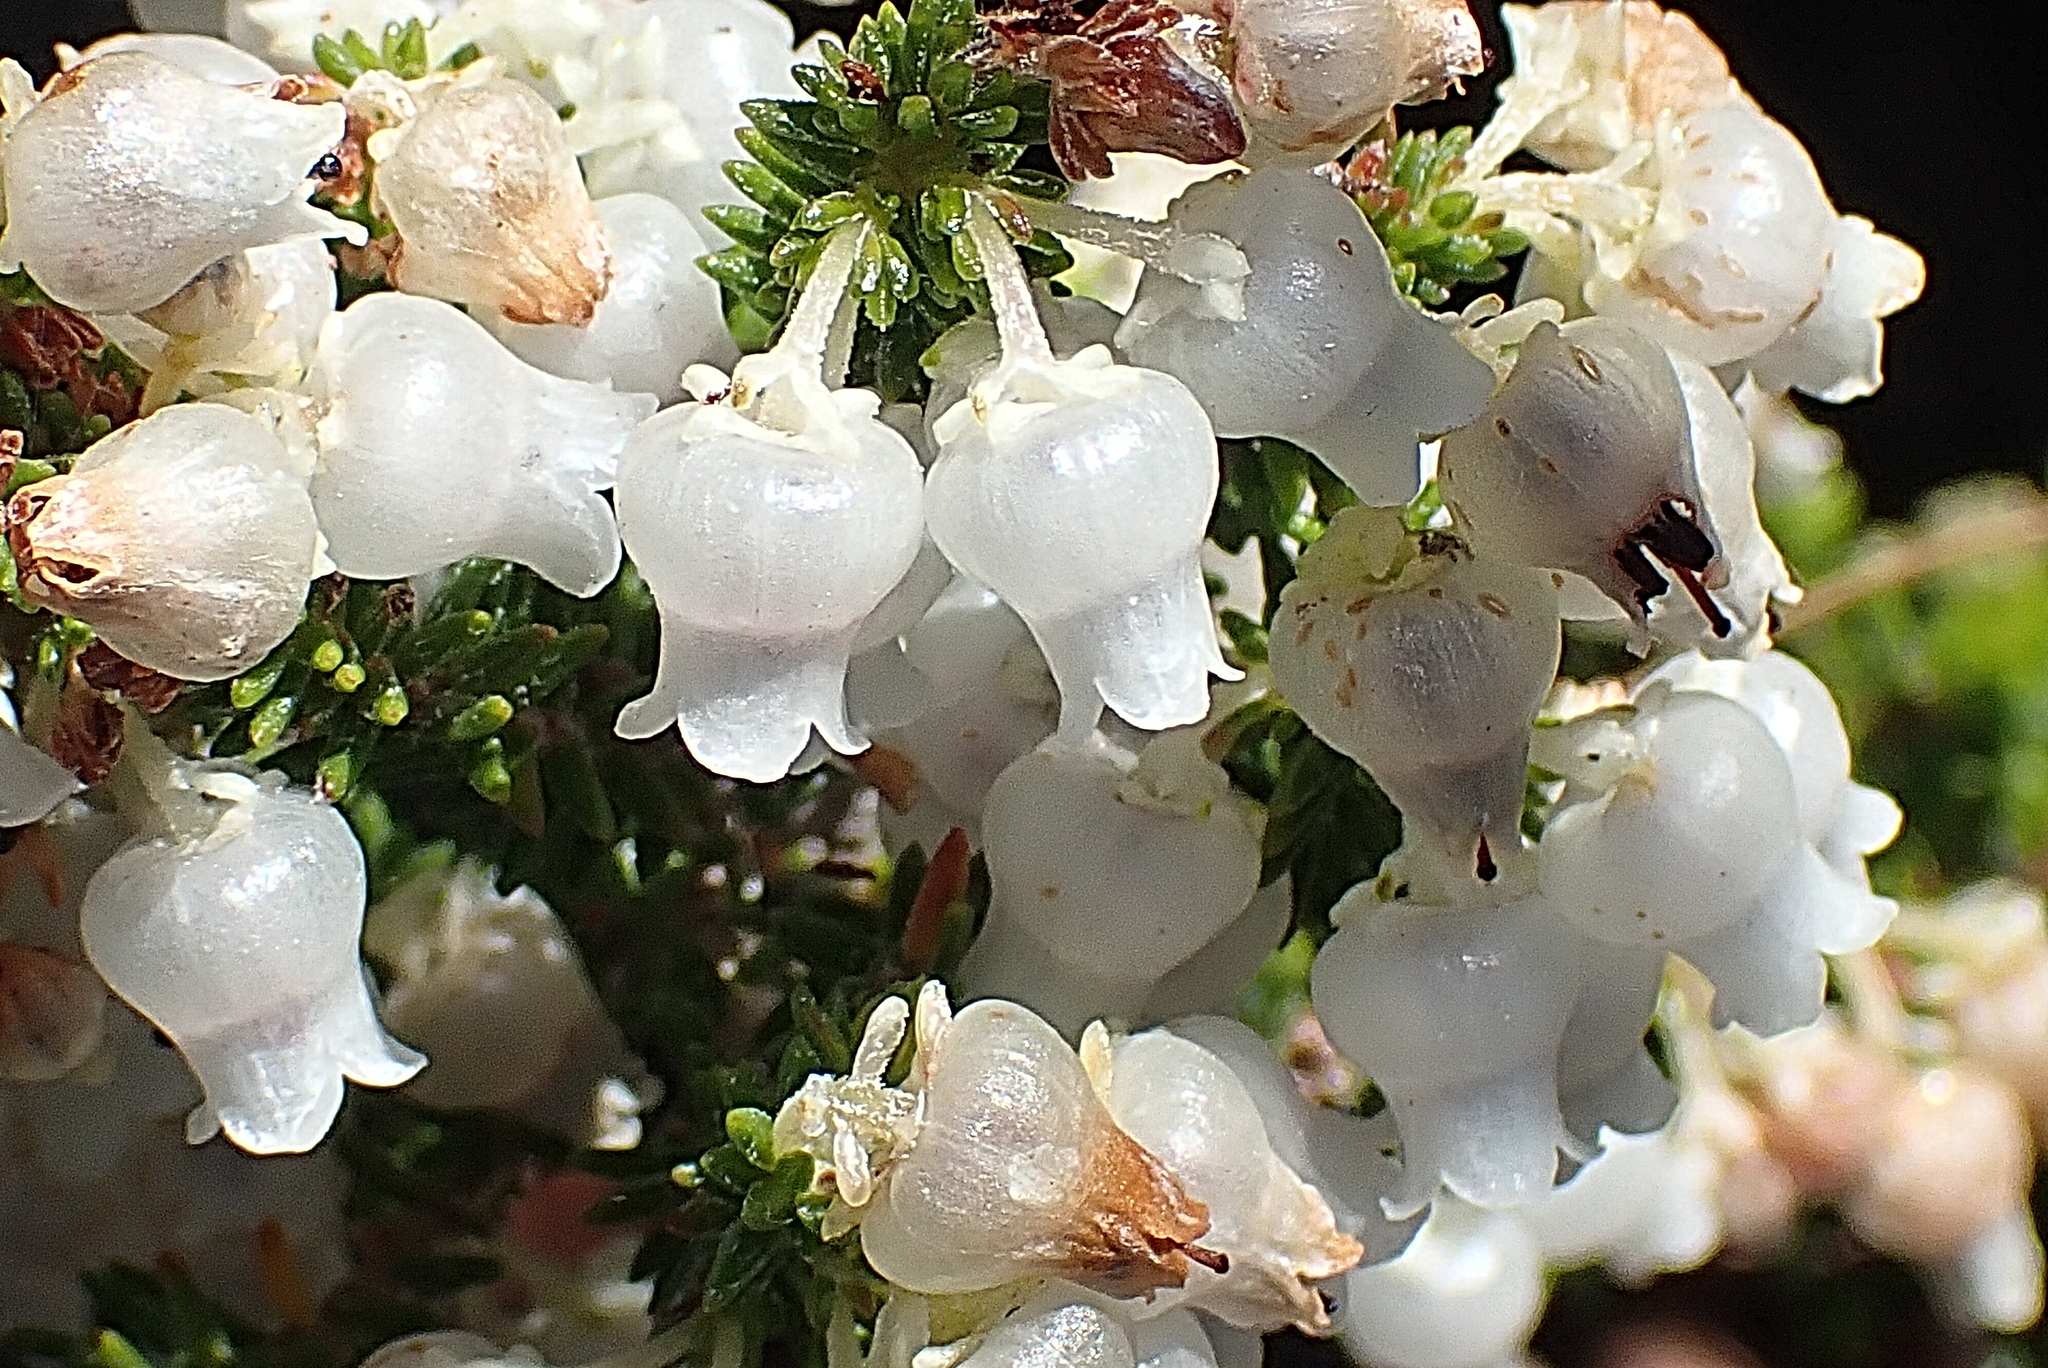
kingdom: Plantae
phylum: Tracheophyta
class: Magnoliopsida
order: Ericales
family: Ericaceae
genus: Erica
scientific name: Erica glomiflora
